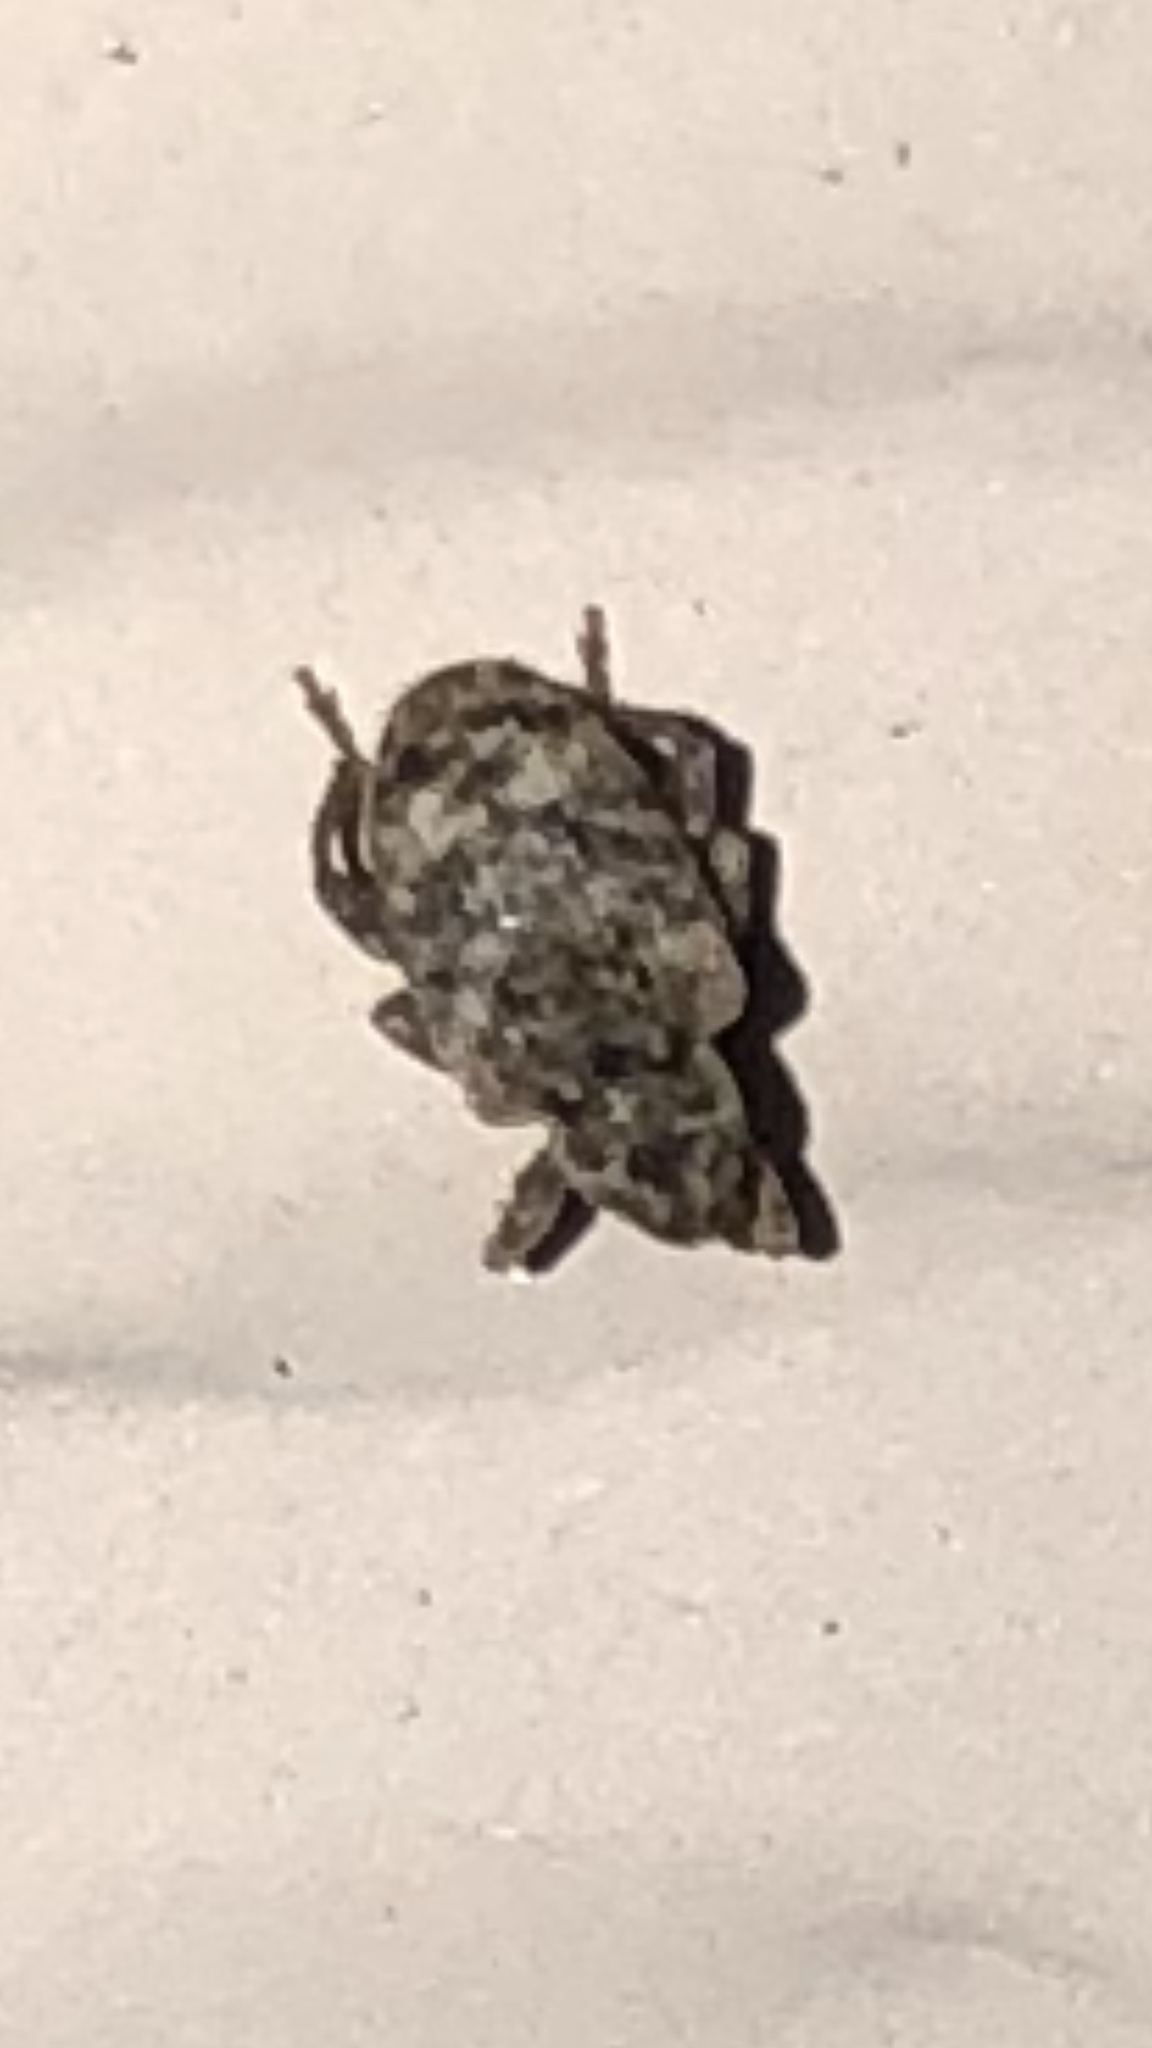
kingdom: Animalia
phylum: Arthropoda
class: Insecta
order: Coleoptera
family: Curculionidae
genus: Conotrachelus
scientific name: Conotrachelus recessus
